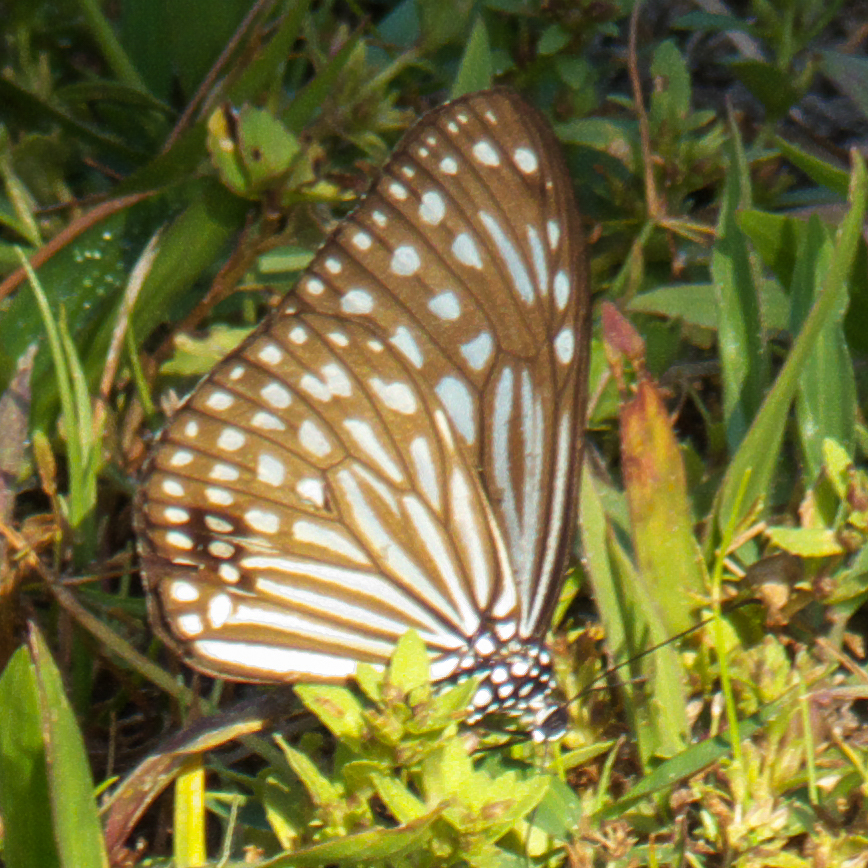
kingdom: Animalia
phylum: Arthropoda
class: Insecta
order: Lepidoptera
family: Nymphalidae
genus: Parantica
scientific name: Parantica agleoides
